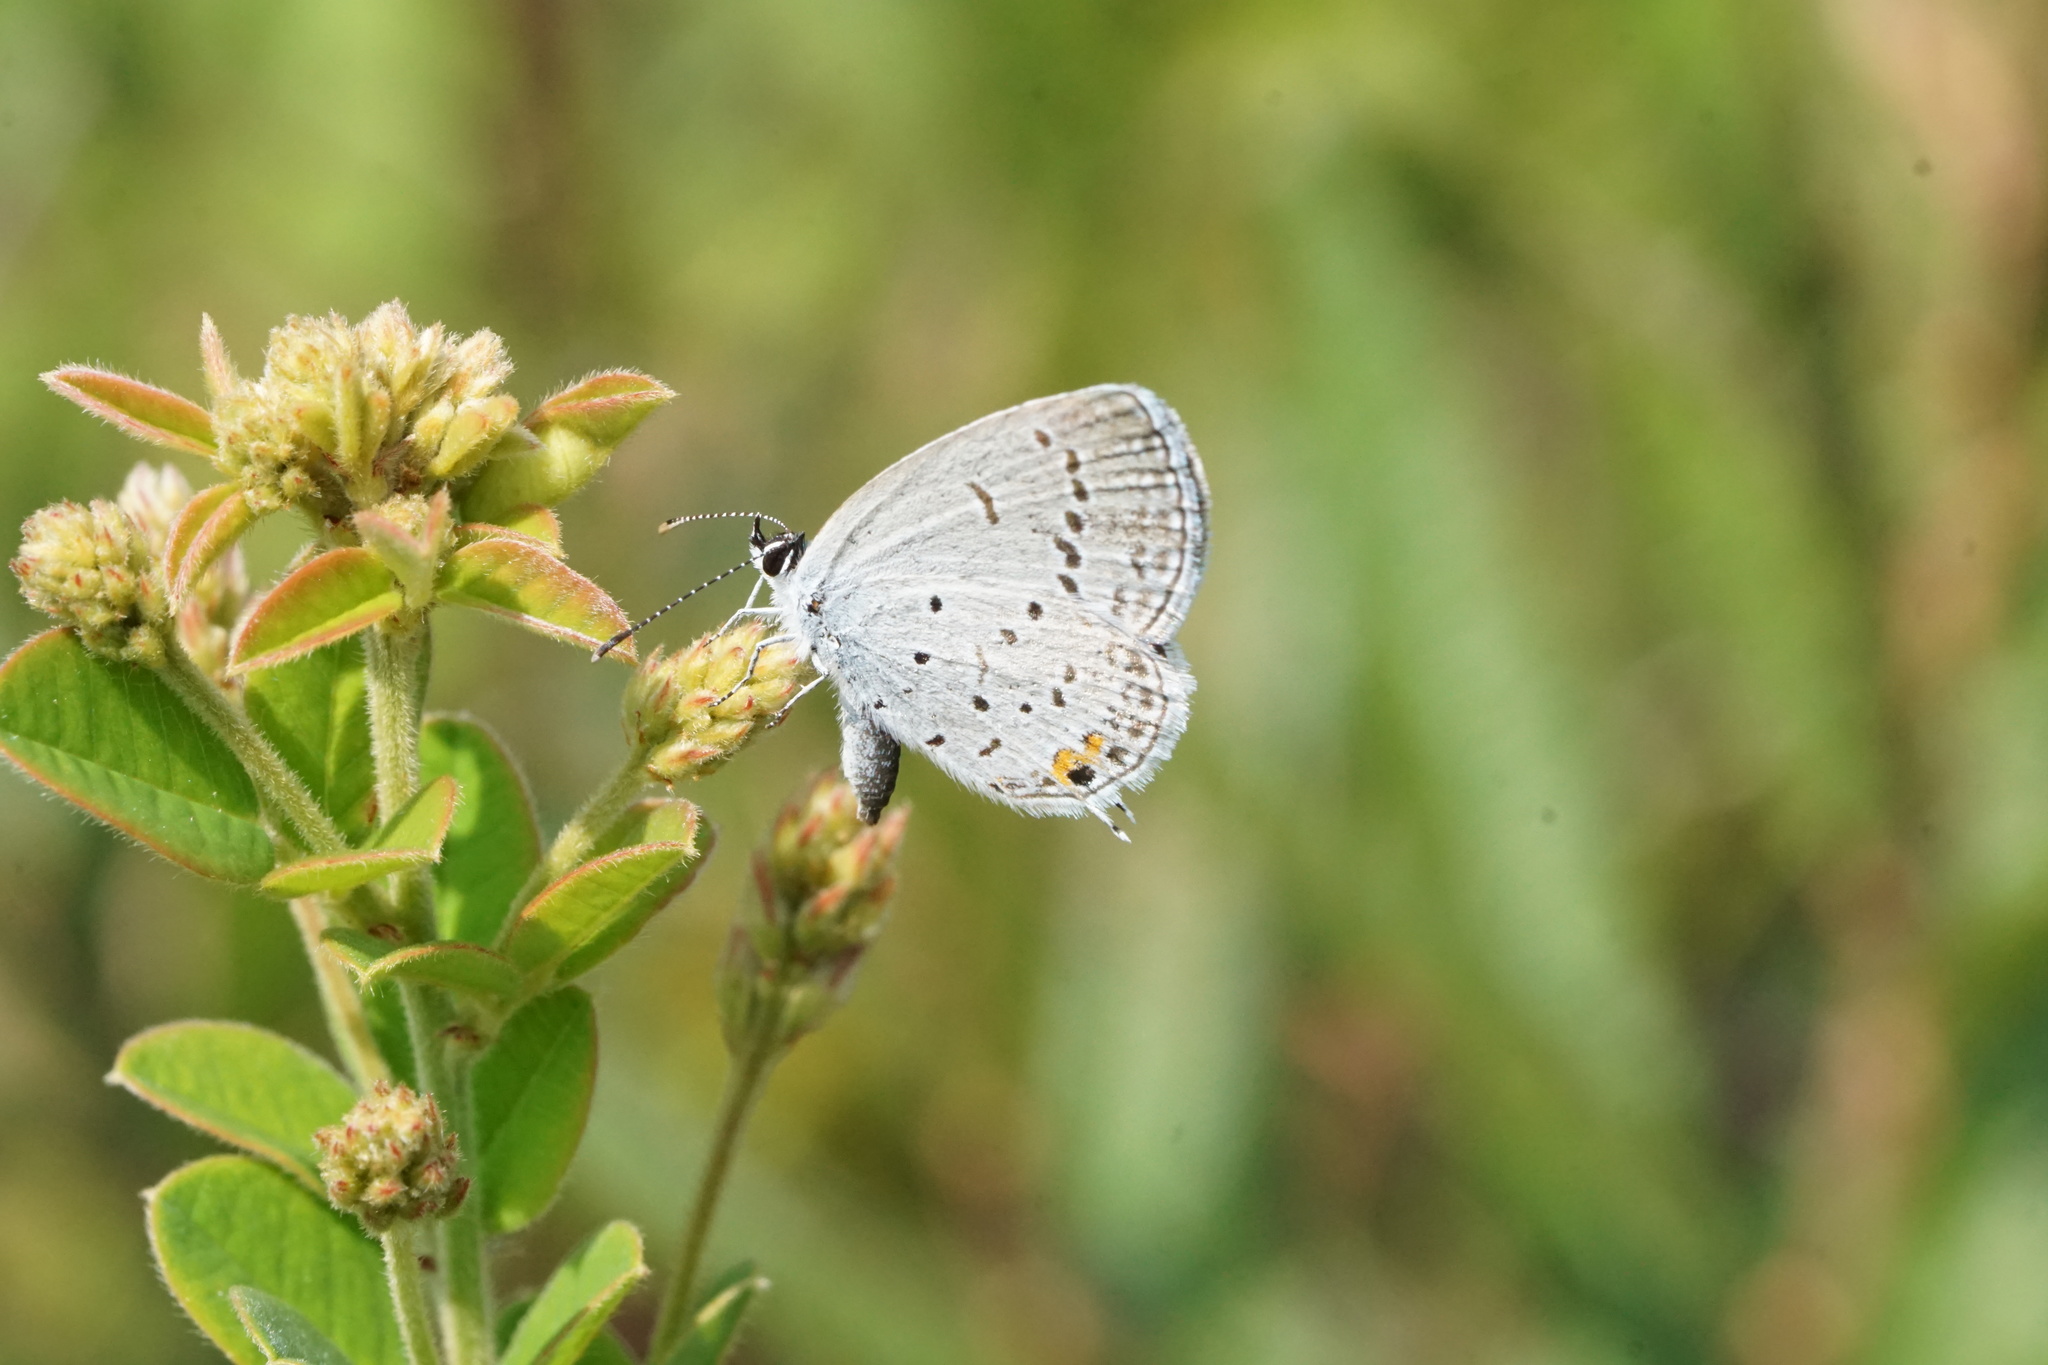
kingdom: Animalia
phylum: Arthropoda
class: Insecta
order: Lepidoptera
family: Lycaenidae
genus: Elkalyce
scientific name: Elkalyce comyntas
